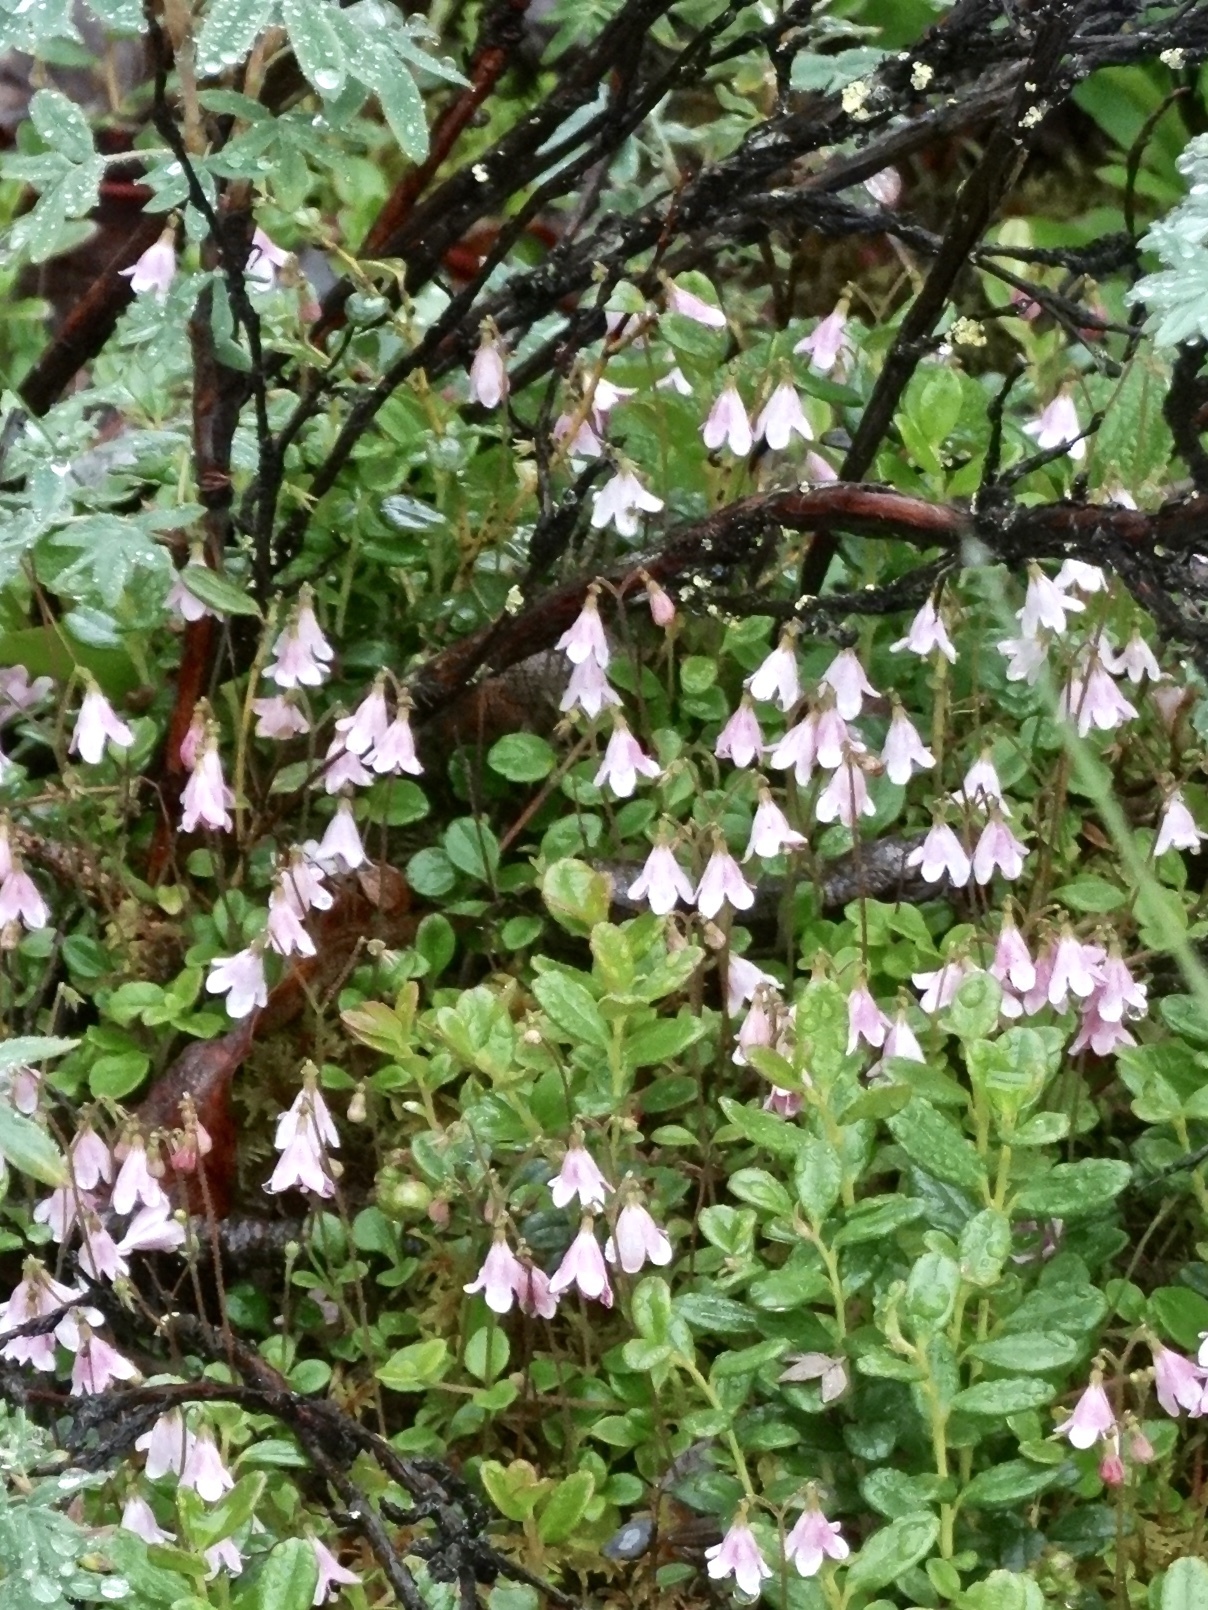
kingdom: Plantae
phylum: Tracheophyta
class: Magnoliopsida
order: Dipsacales
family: Caprifoliaceae
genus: Linnaea
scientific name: Linnaea borealis
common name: Twinflower
